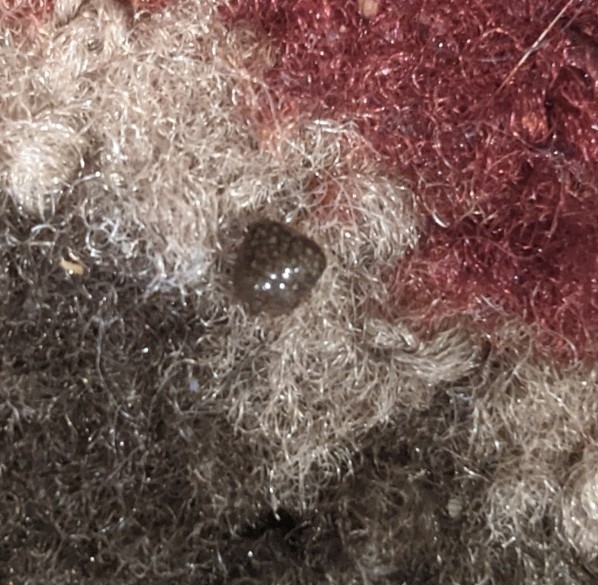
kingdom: Animalia
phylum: Arthropoda
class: Insecta
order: Hemiptera
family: Plataspidae
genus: Megacopta
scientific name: Megacopta cribraria
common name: Bean plataspid
